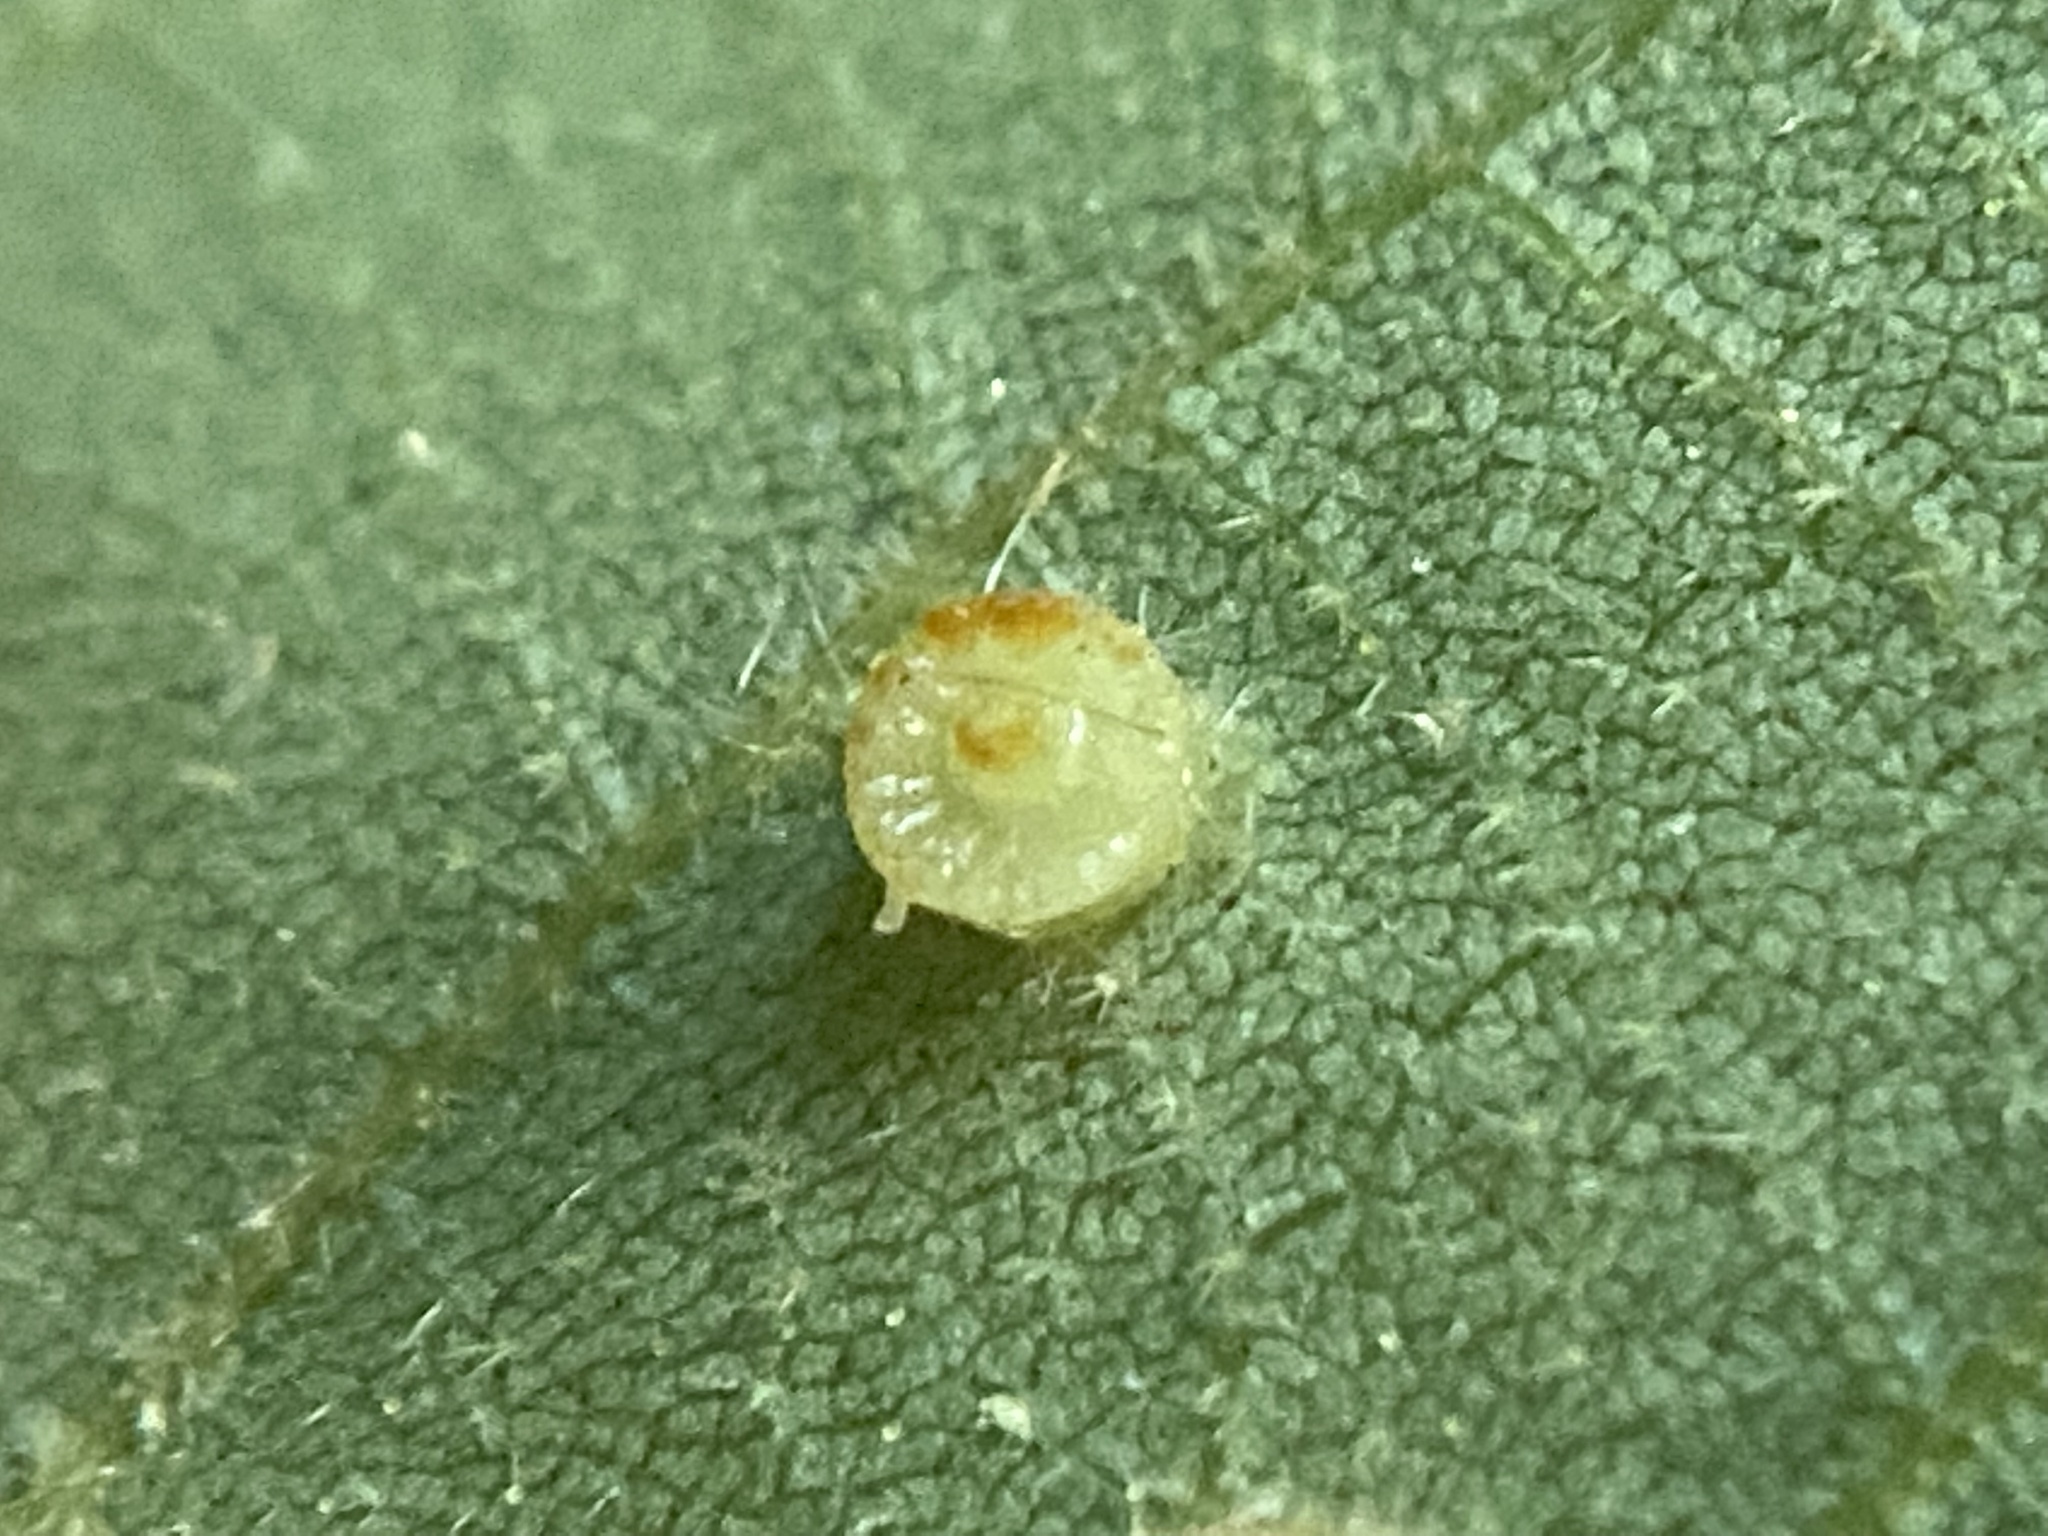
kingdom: Animalia
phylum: Arthropoda
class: Insecta
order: Diptera
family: Cecidomyiidae
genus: Caryomyia
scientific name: Caryomyia flaticrustum
